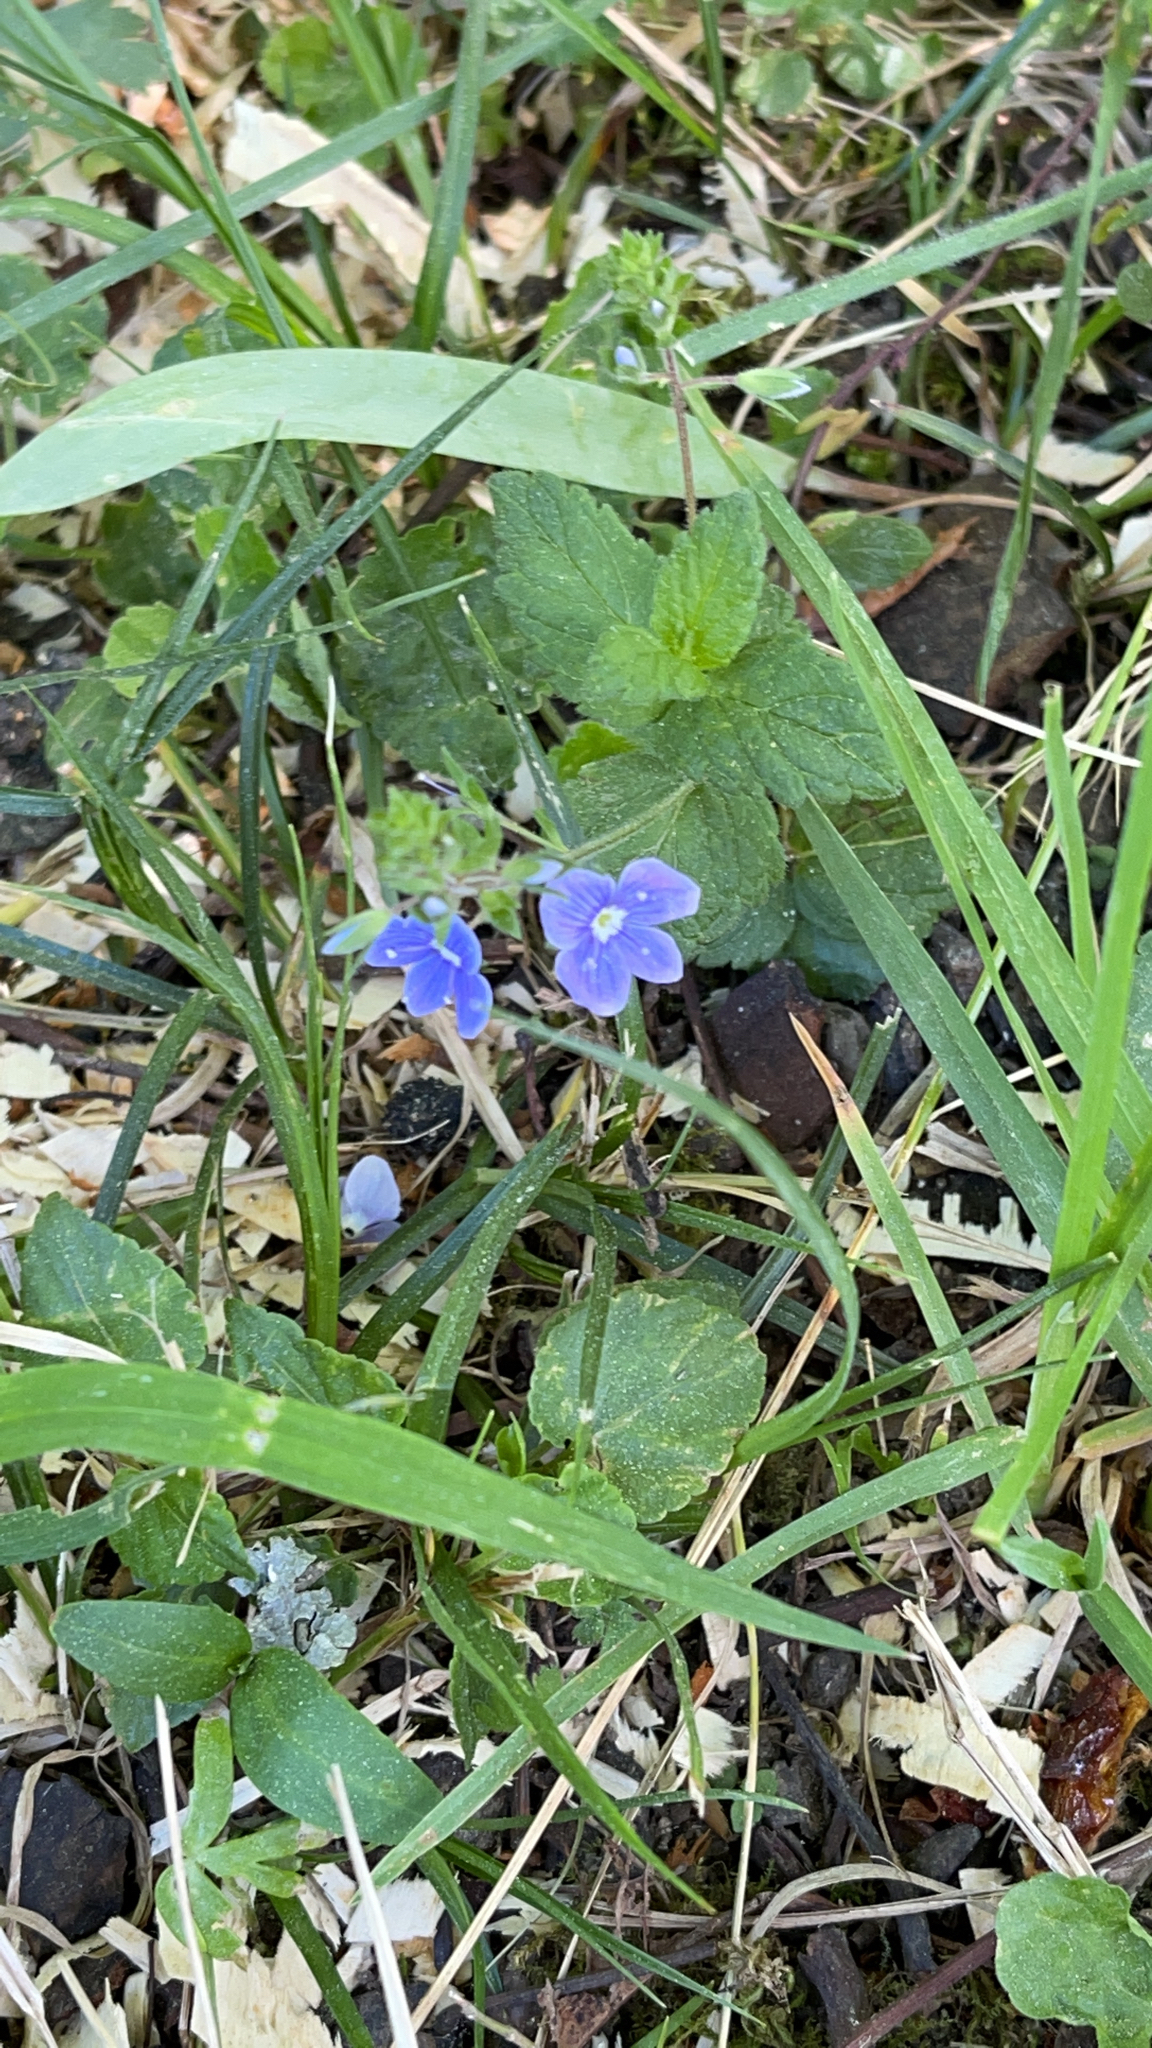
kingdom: Plantae
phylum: Tracheophyta
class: Magnoliopsida
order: Lamiales
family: Plantaginaceae
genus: Veronica
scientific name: Veronica chamaedrys
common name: Germander speedwell
